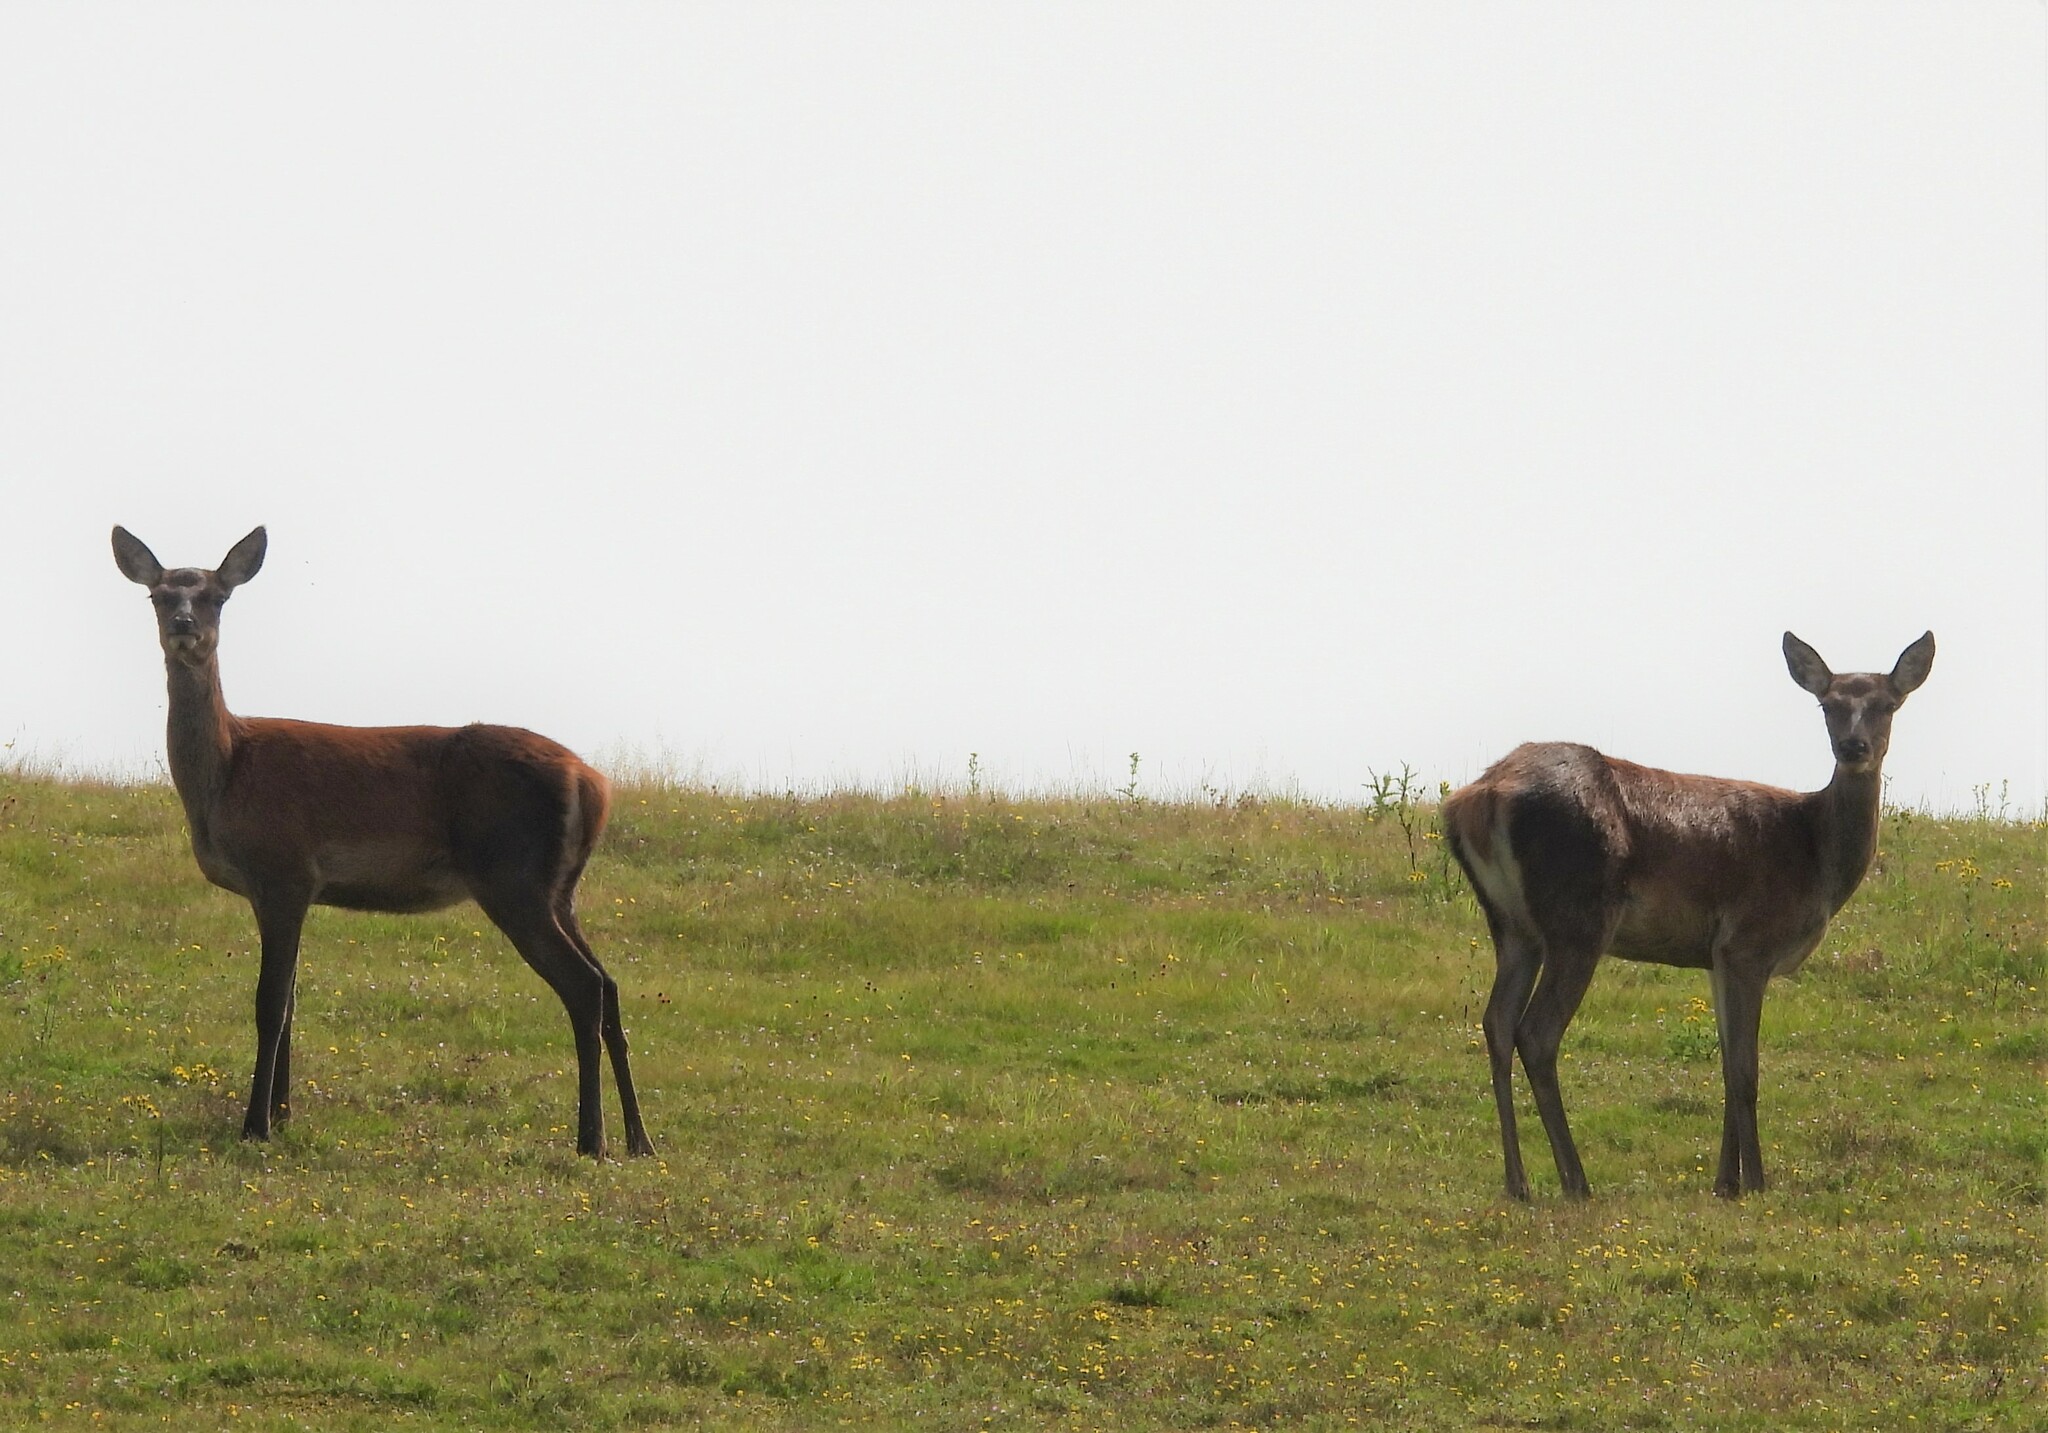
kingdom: Animalia
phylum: Chordata
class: Mammalia
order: Artiodactyla
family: Cervidae
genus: Cervus
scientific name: Cervus elaphus
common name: Red deer
